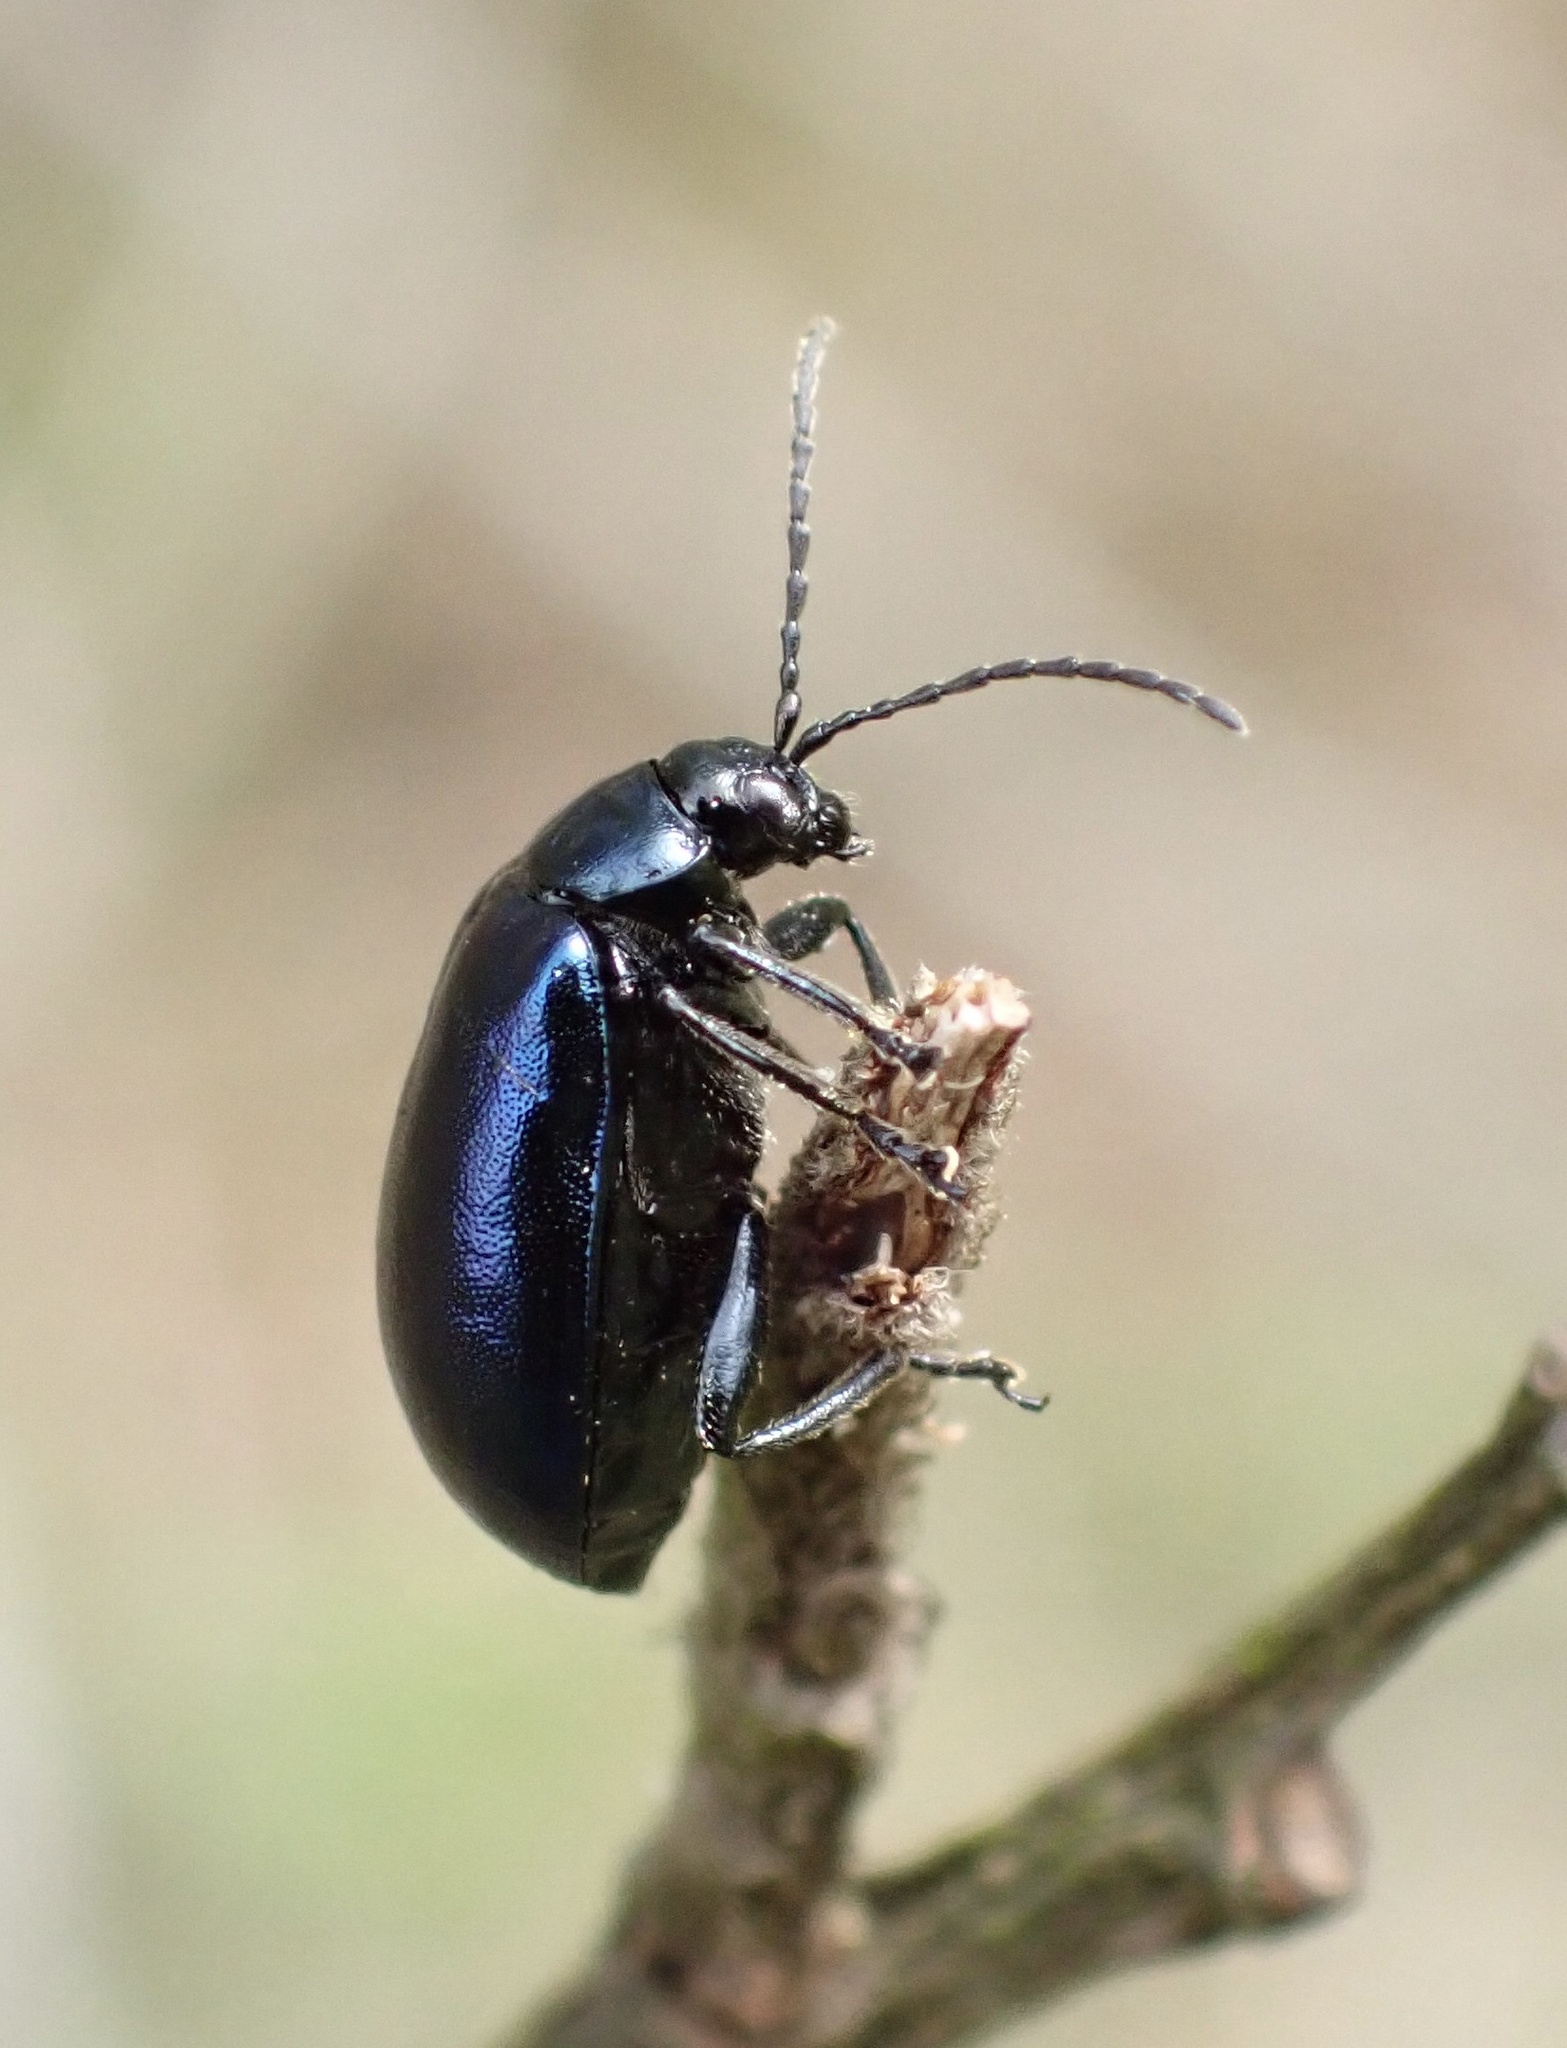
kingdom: Animalia
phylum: Arthropoda
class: Insecta
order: Coleoptera
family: Chrysomelidae
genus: Agelastica
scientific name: Agelastica alni
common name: Alder leaf beetle
